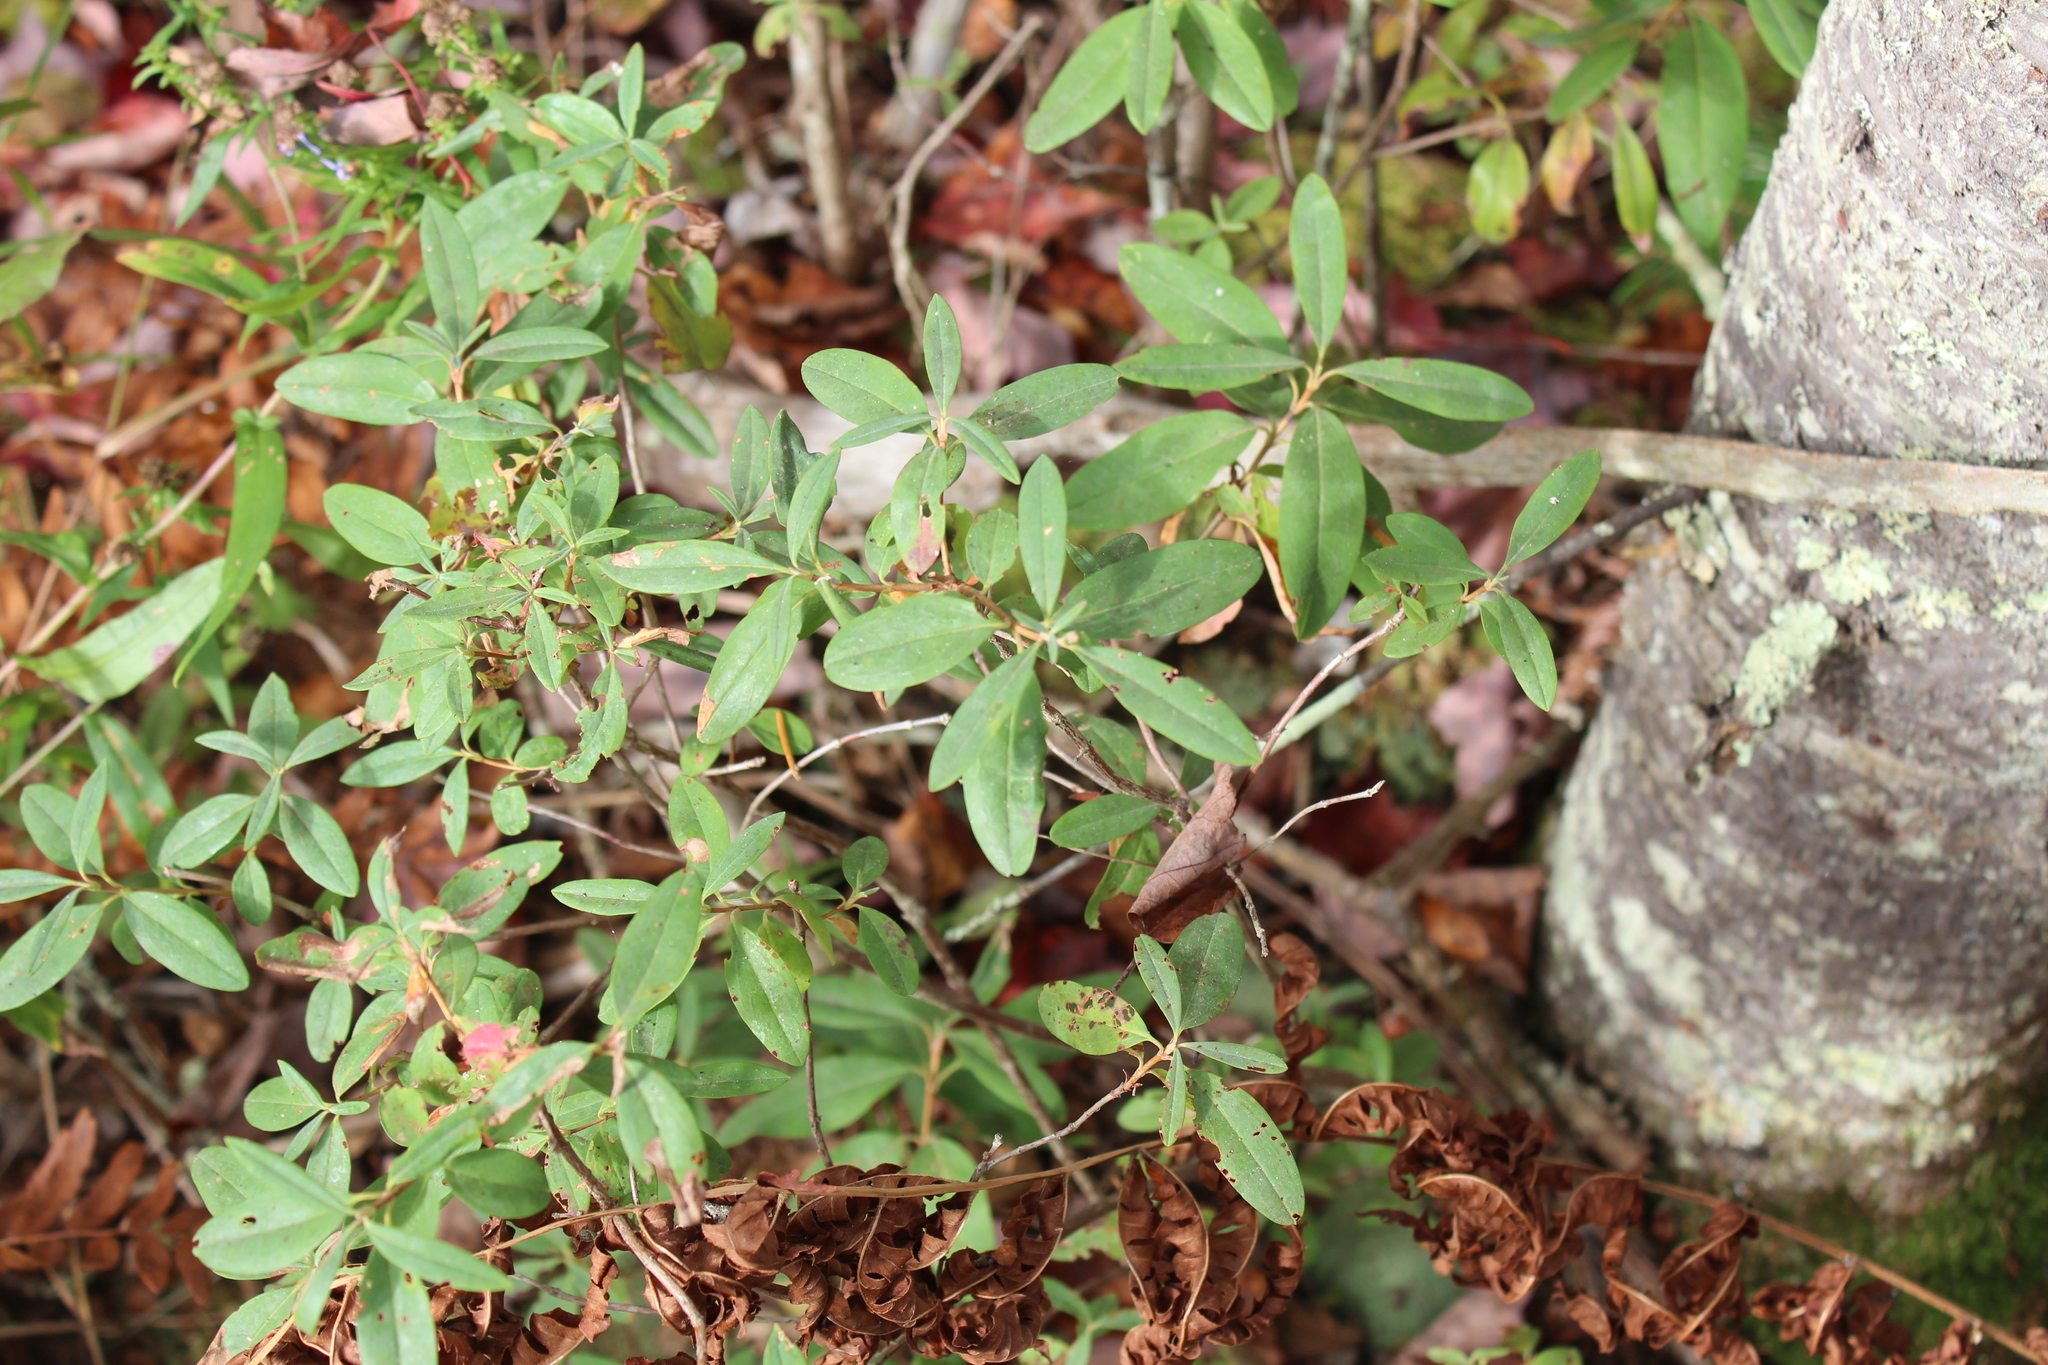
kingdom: Plantae
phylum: Tracheophyta
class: Magnoliopsida
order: Ericales
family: Ericaceae
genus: Kalmia
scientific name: Kalmia angustifolia
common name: Sheep-laurel
